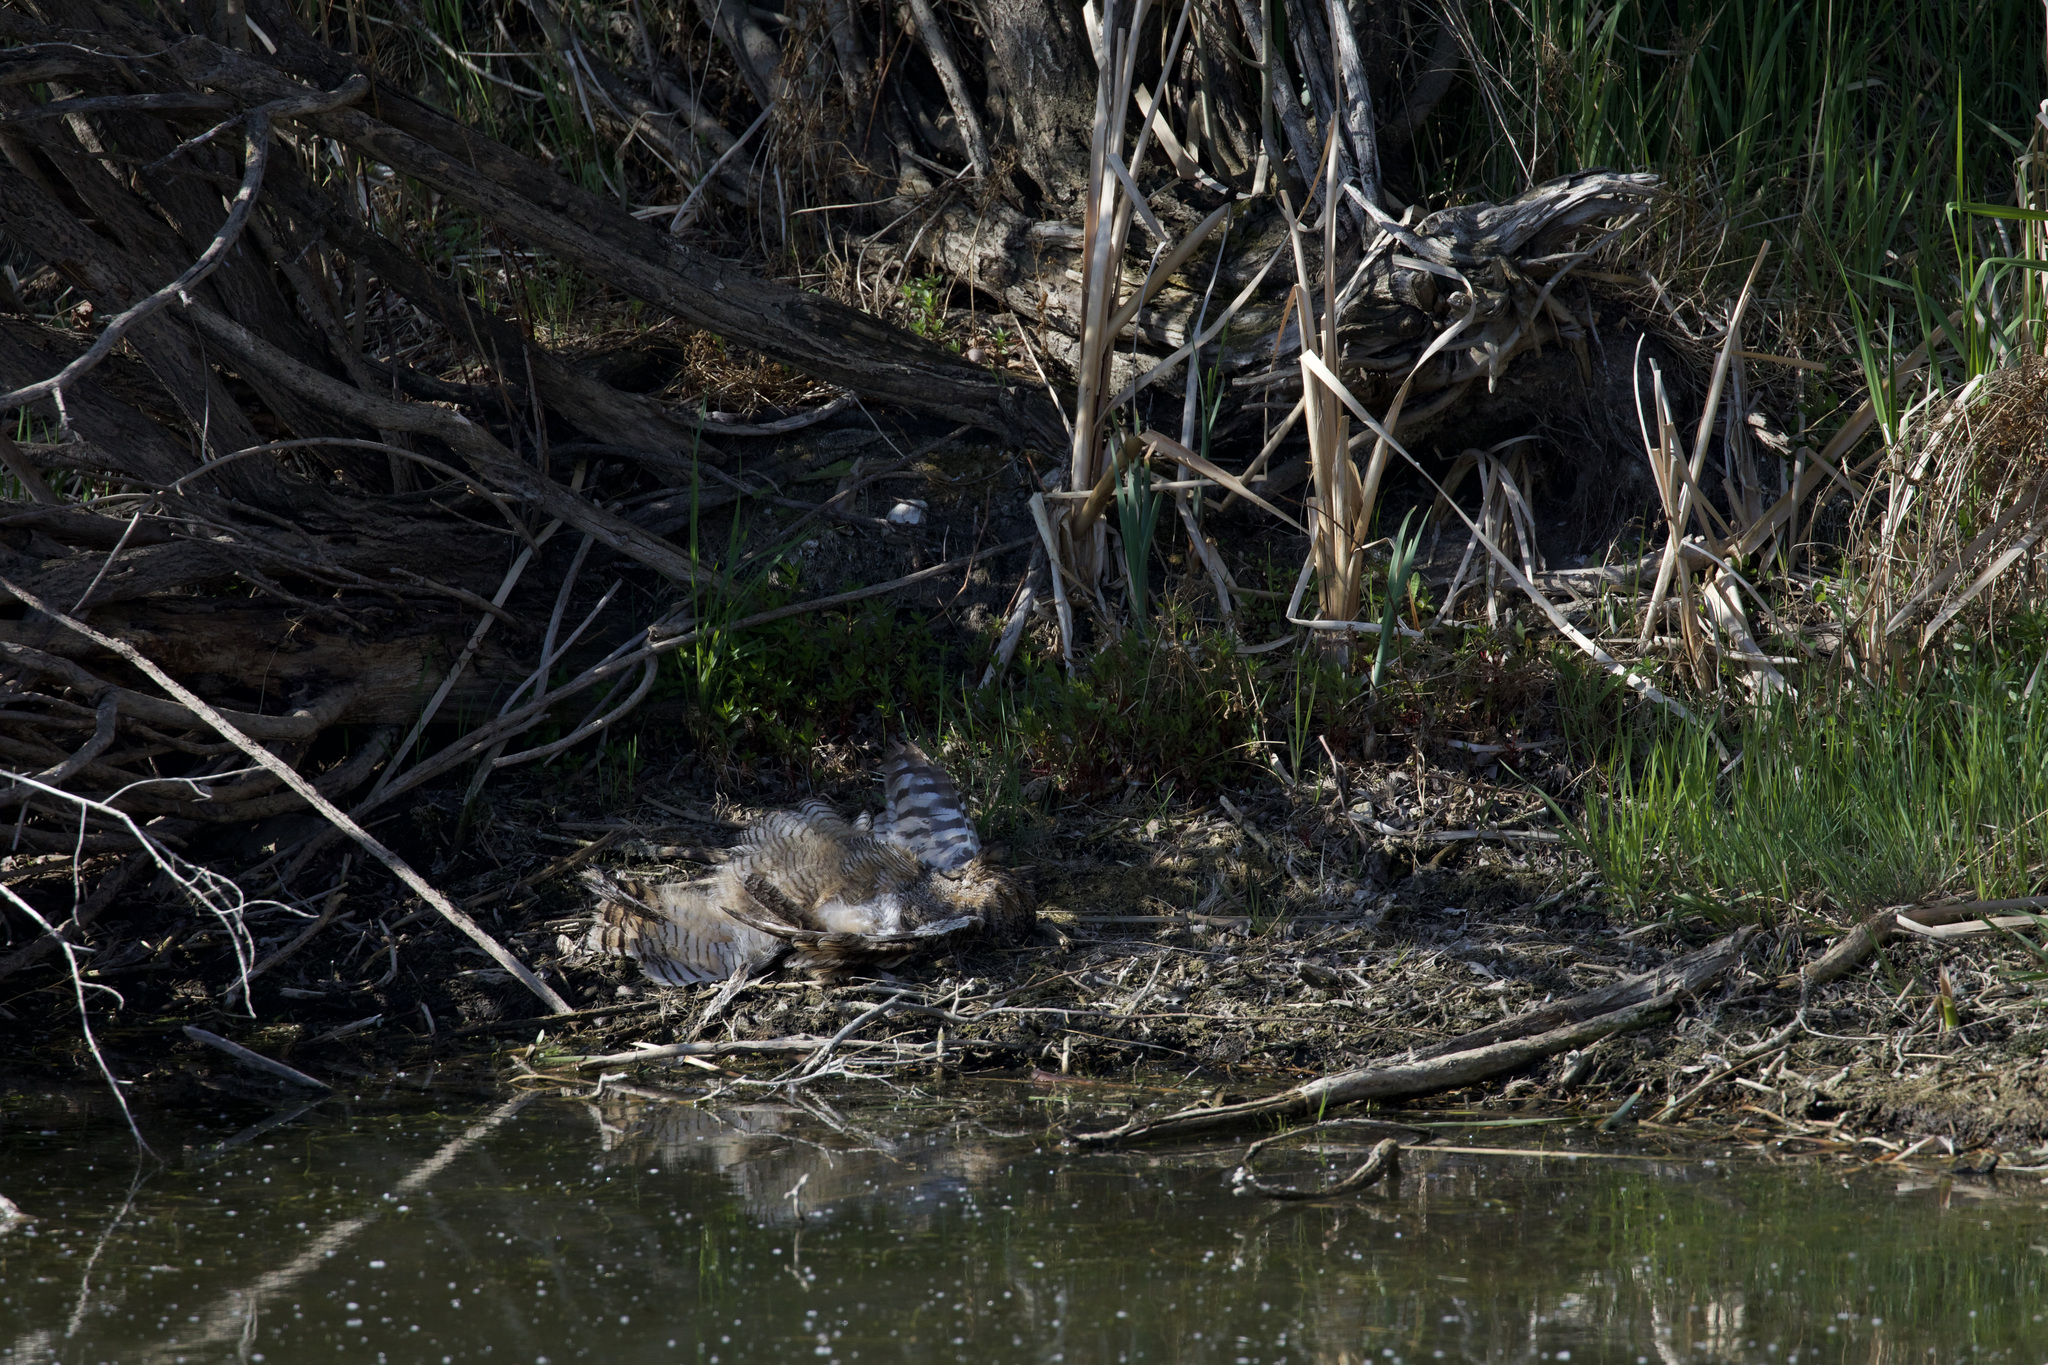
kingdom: Animalia
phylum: Chordata
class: Aves
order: Strigiformes
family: Strigidae
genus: Bubo
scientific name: Bubo virginianus
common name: Great horned owl
